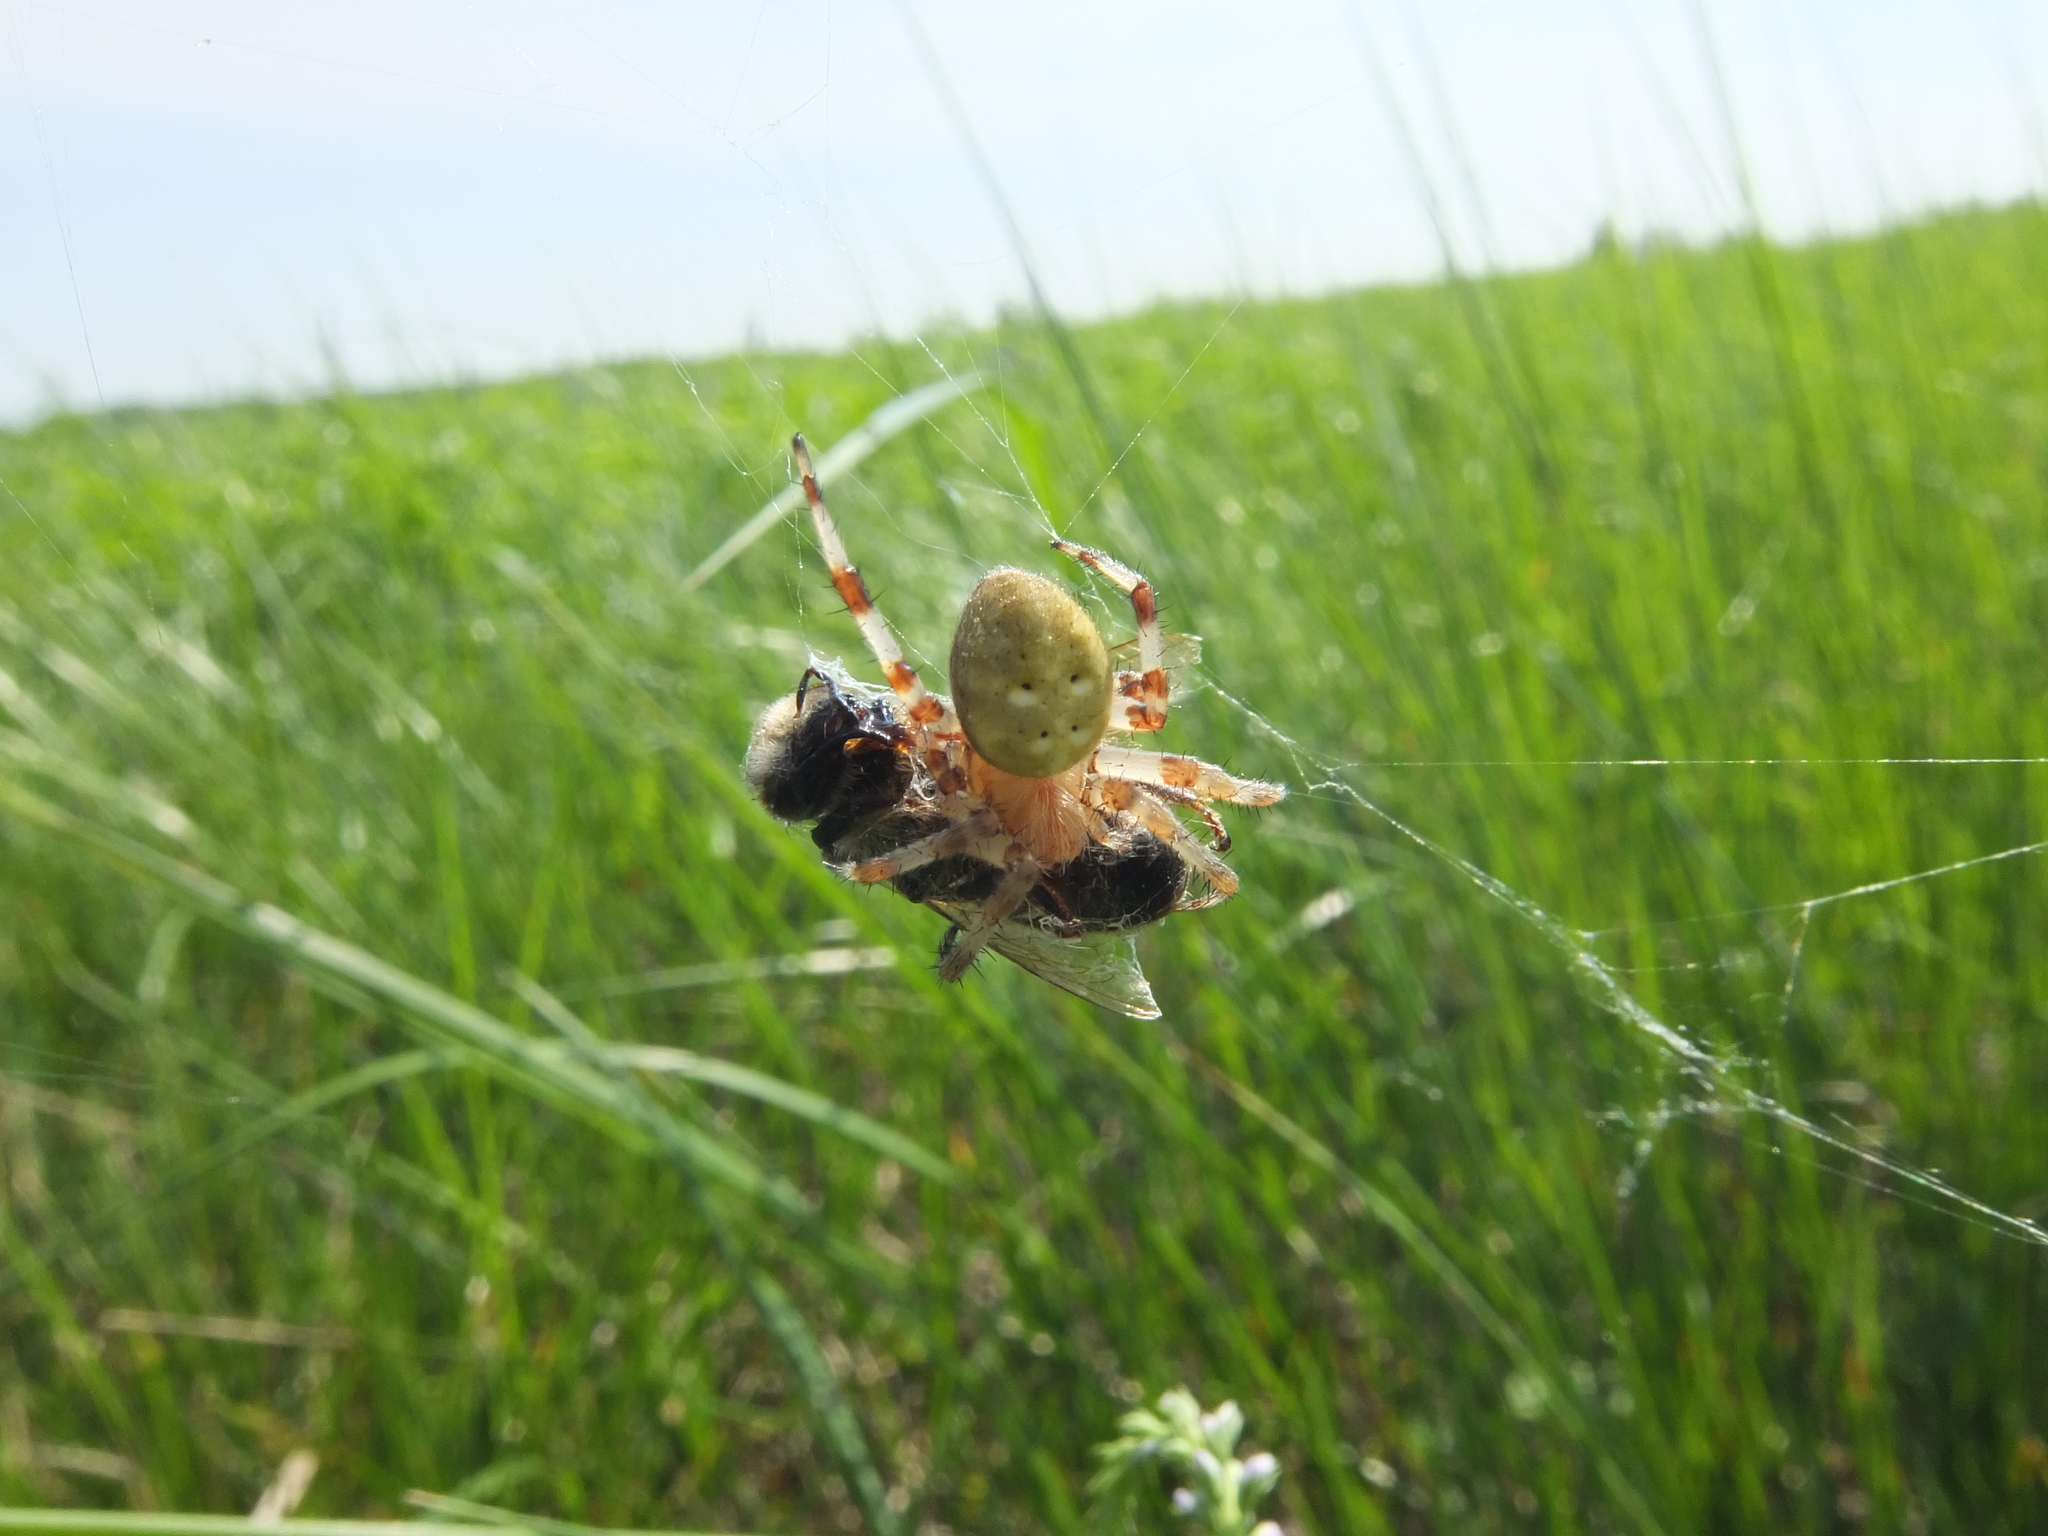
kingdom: Animalia
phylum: Arthropoda
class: Arachnida
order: Araneae
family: Araneidae
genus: Araneus
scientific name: Araneus quadratus
